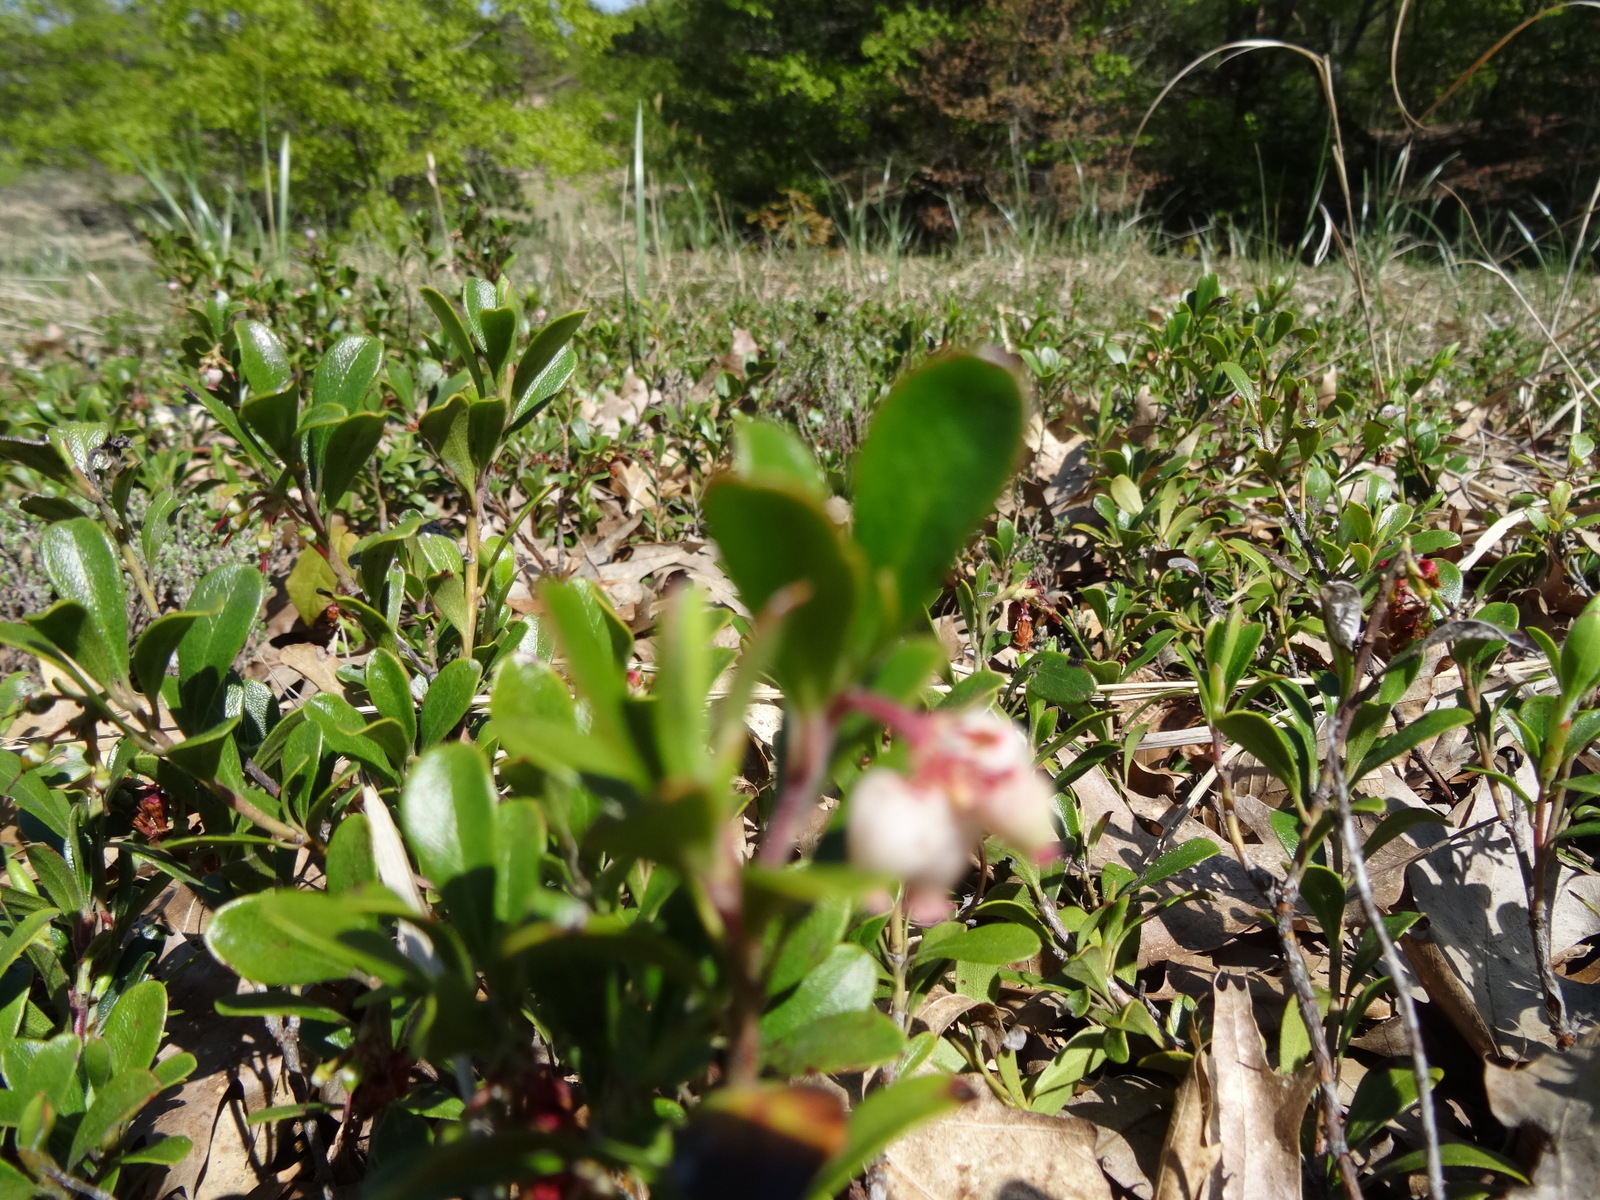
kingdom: Plantae
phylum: Tracheophyta
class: Magnoliopsida
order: Ericales
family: Ericaceae
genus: Arctostaphylos
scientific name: Arctostaphylos uva-ursi
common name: Bearberry
